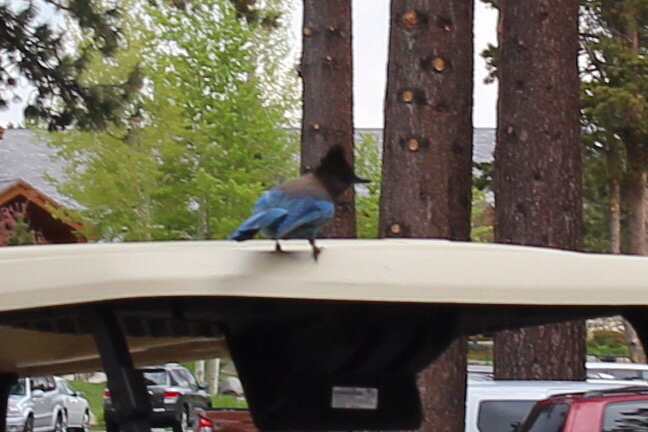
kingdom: Animalia
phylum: Chordata
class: Aves
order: Passeriformes
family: Corvidae
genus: Cyanocitta
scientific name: Cyanocitta stelleri
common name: Steller's jay
